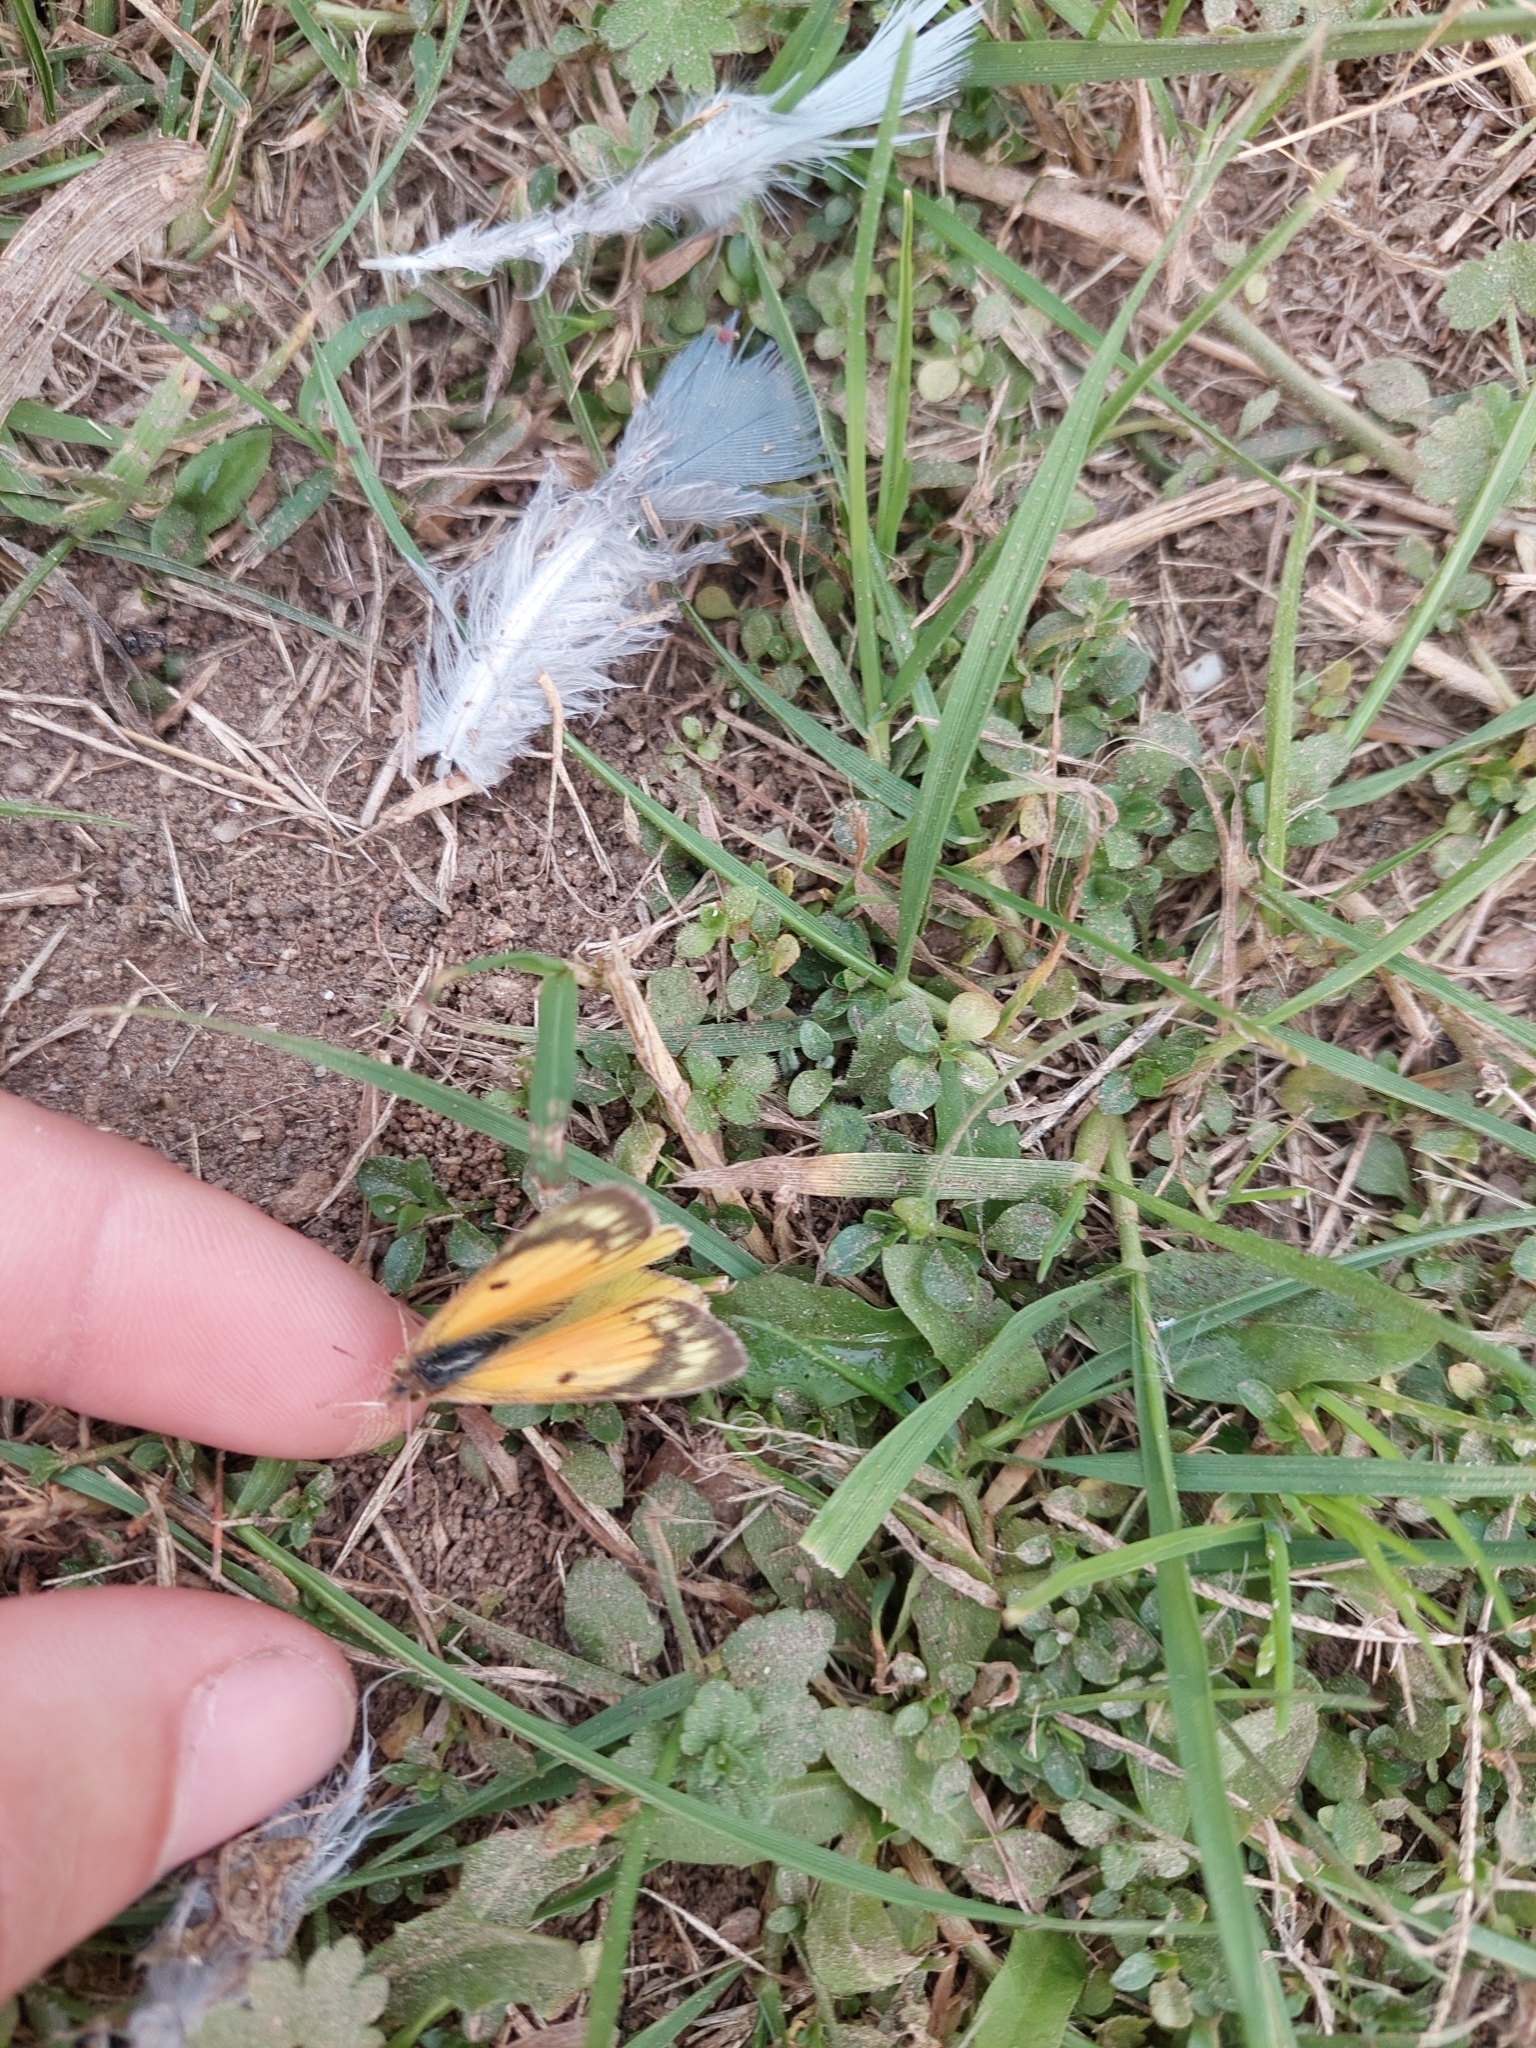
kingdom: Animalia
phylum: Arthropoda
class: Insecta
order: Lepidoptera
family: Pieridae
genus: Colias
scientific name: Colias lesbia
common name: Lesbia clouded yellow
